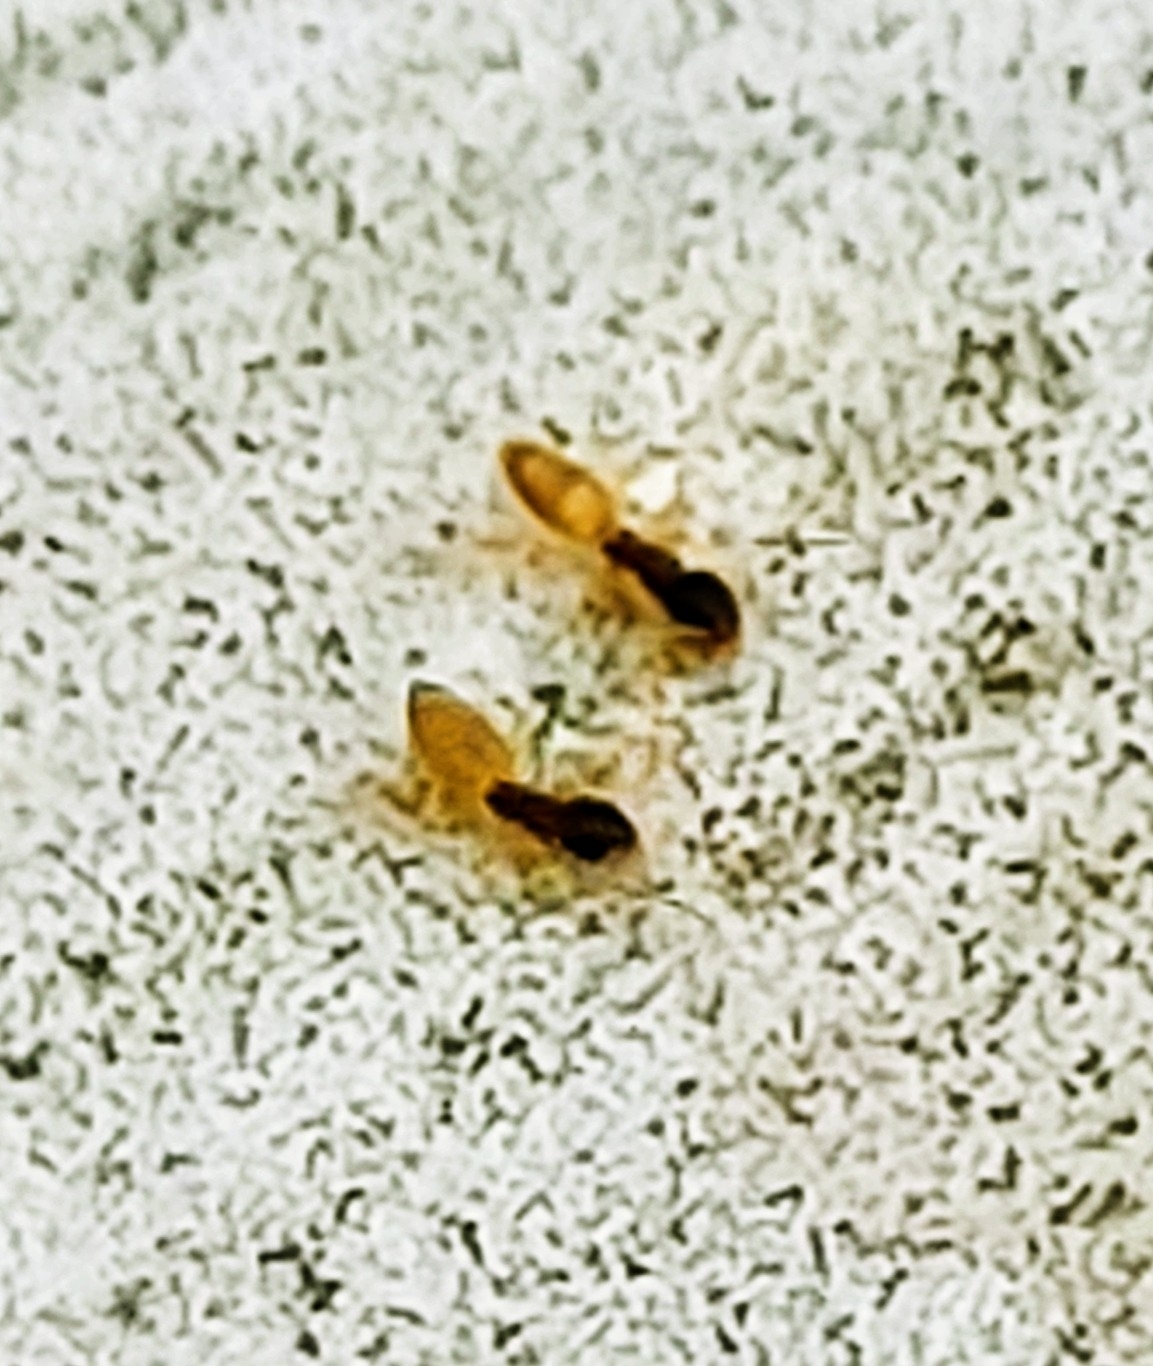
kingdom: Animalia
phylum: Arthropoda
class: Insecta
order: Hymenoptera
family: Formicidae
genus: Tapinoma
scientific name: Tapinoma melanocephalum
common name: Ghost ant
